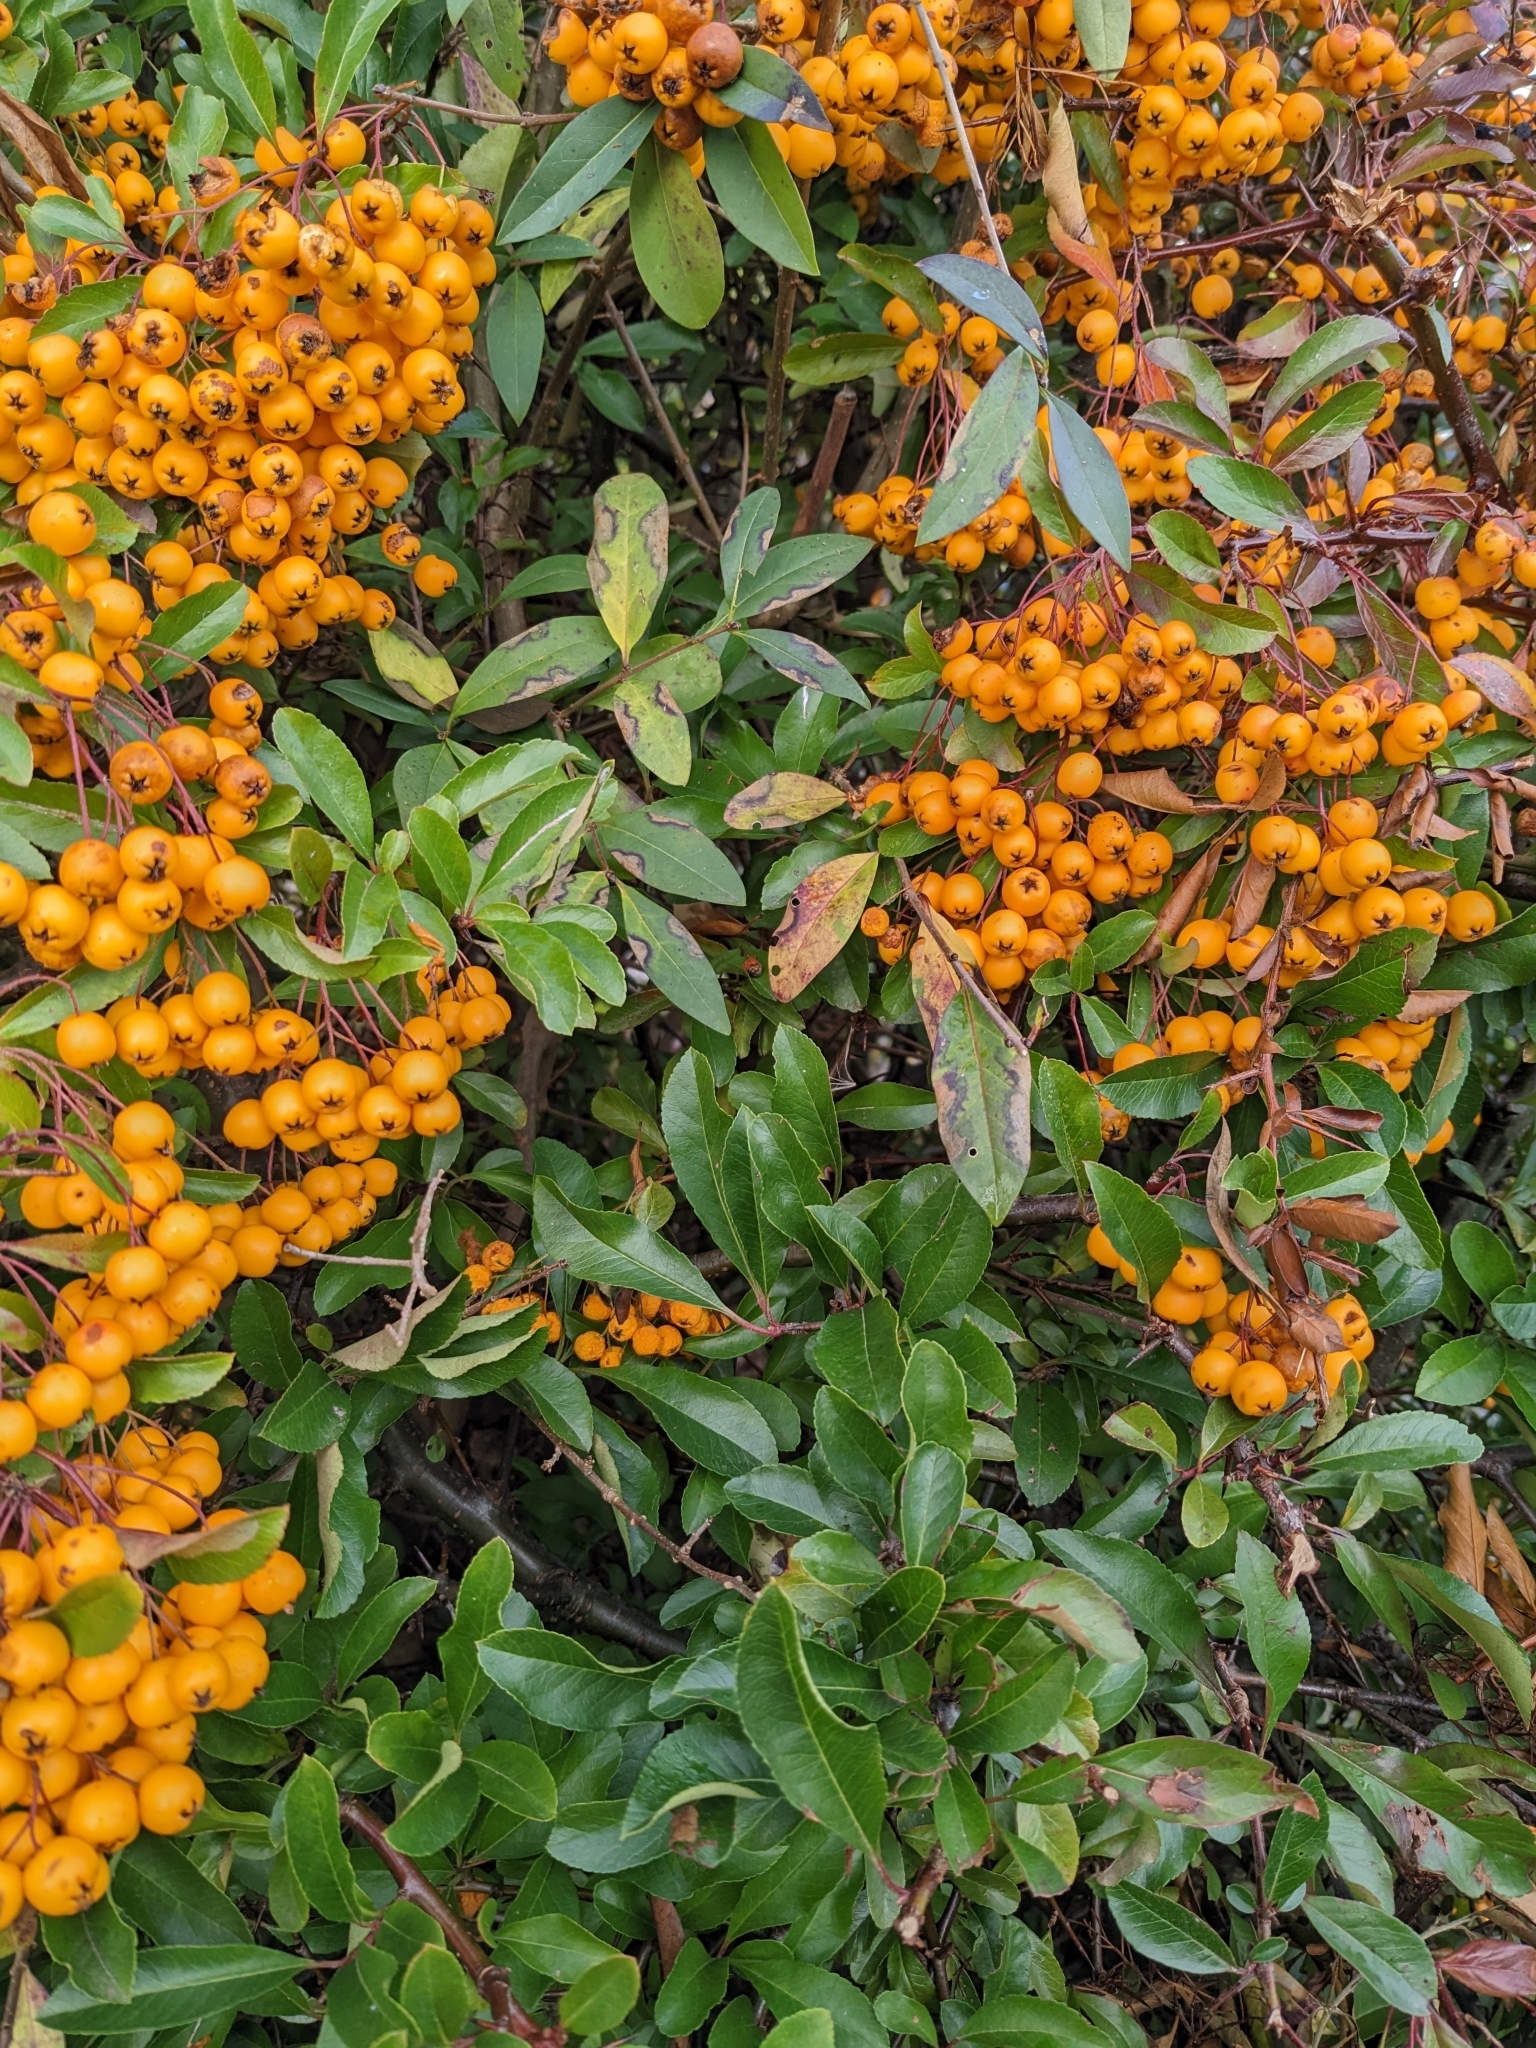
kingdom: Plantae
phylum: Tracheophyta
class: Magnoliopsida
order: Rosales
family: Rosaceae
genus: Pyracantha
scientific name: Pyracantha coccinea
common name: Firethorn
